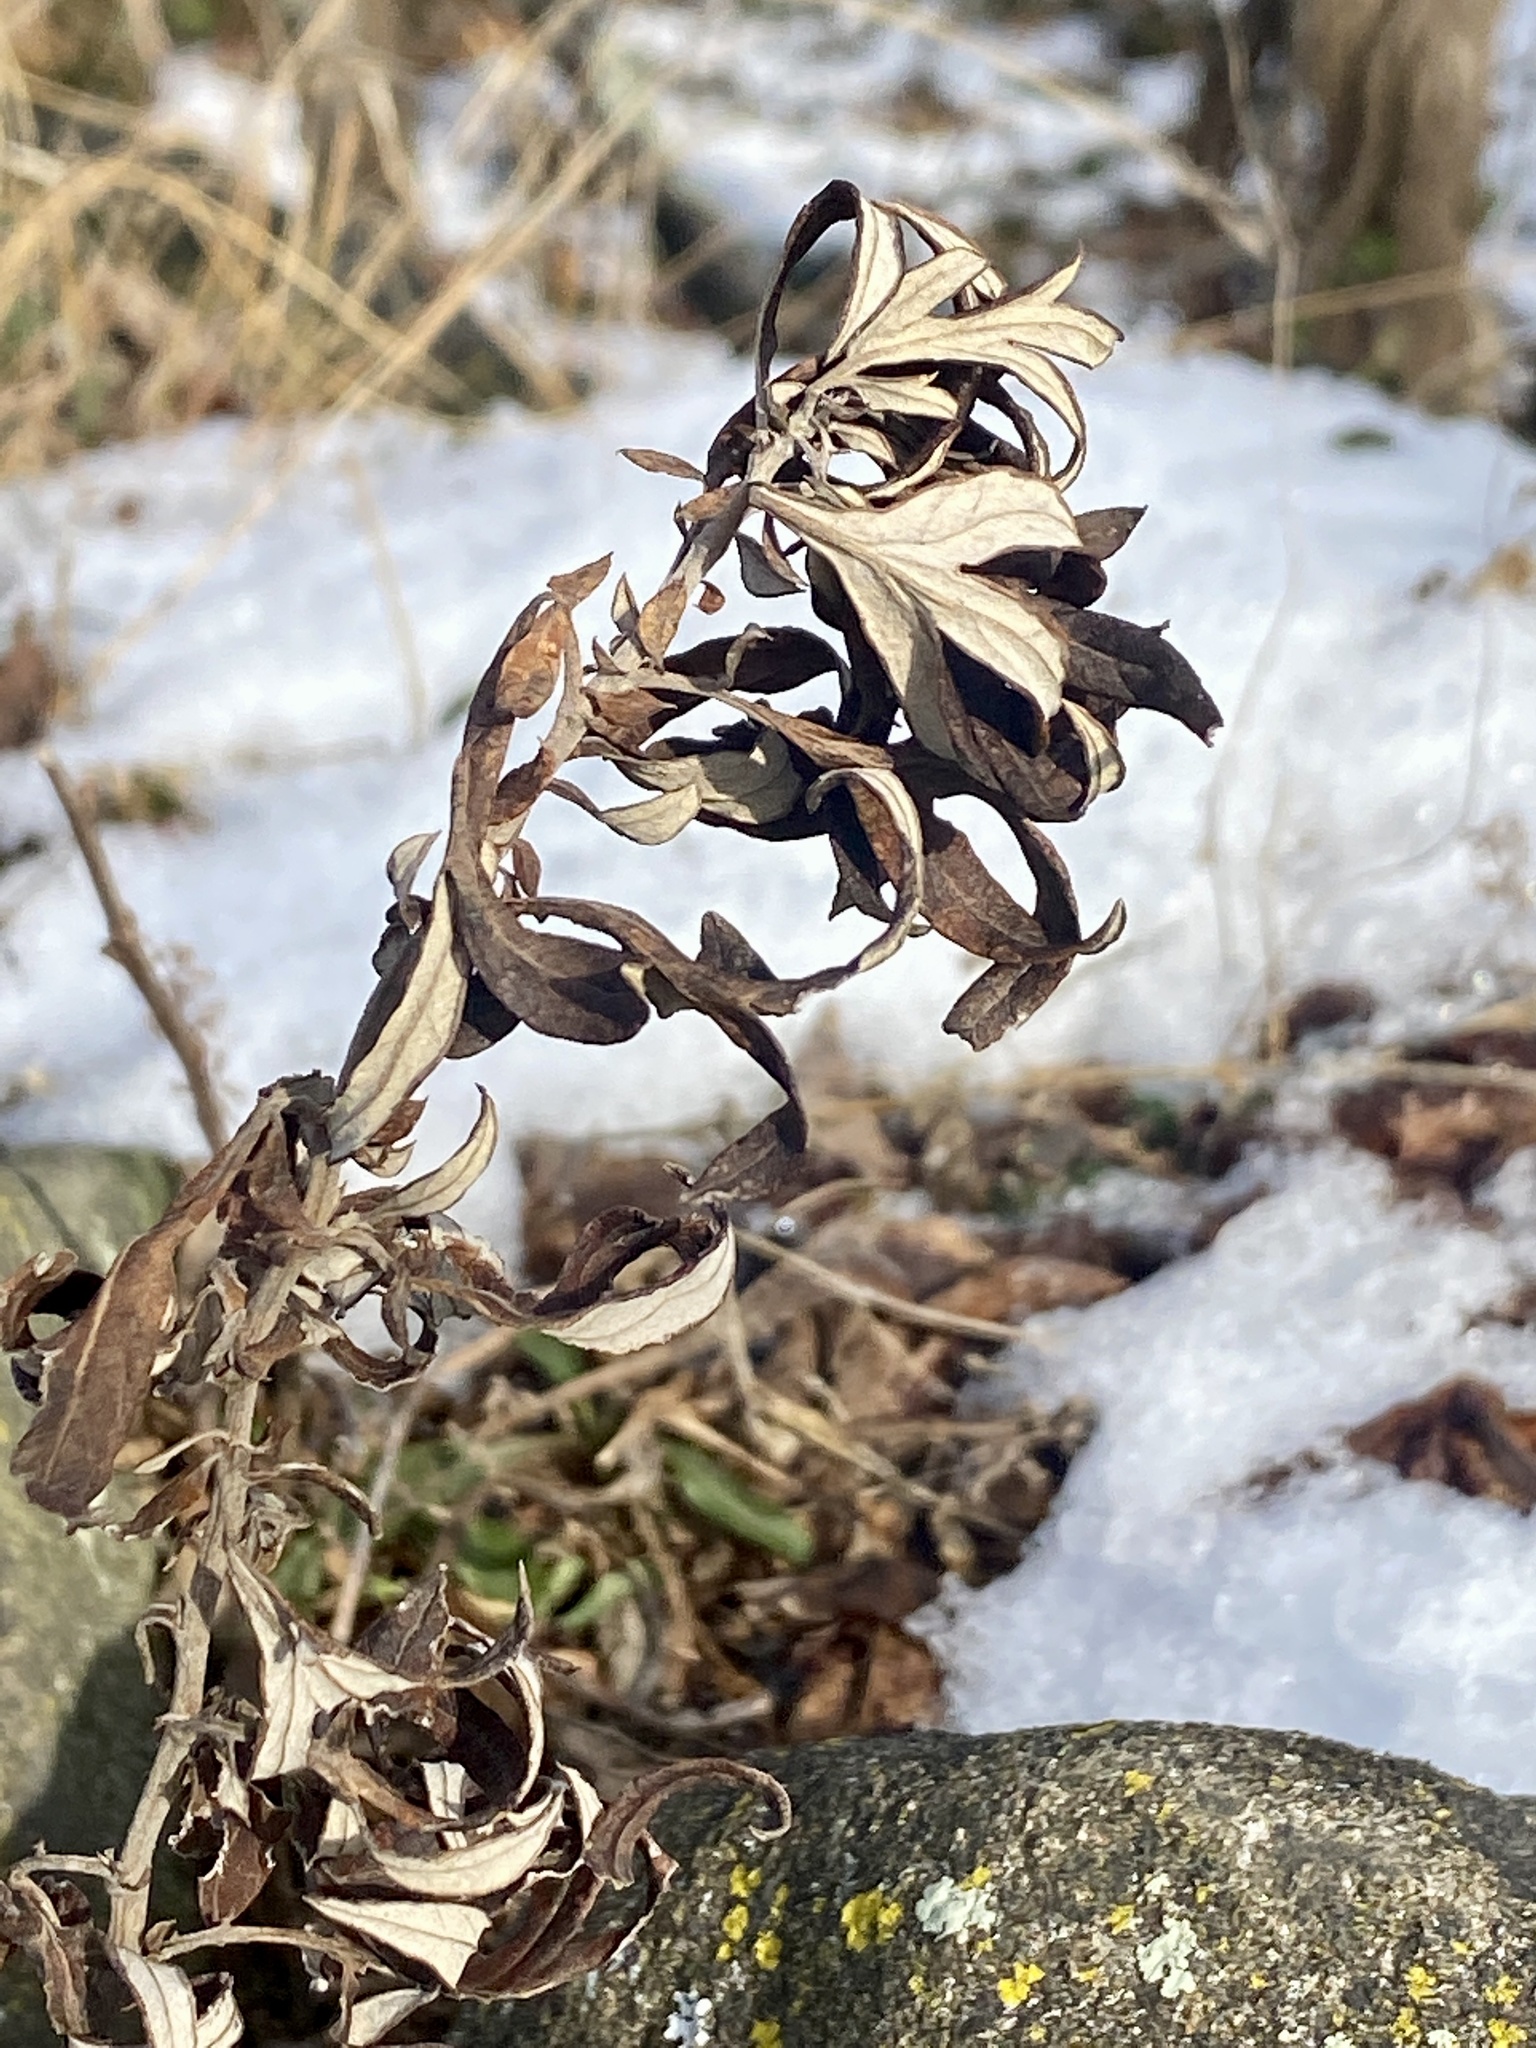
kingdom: Plantae
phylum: Tracheophyta
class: Magnoliopsida
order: Asterales
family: Asteraceae
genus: Artemisia
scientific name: Artemisia vulgaris
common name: Mugwort
